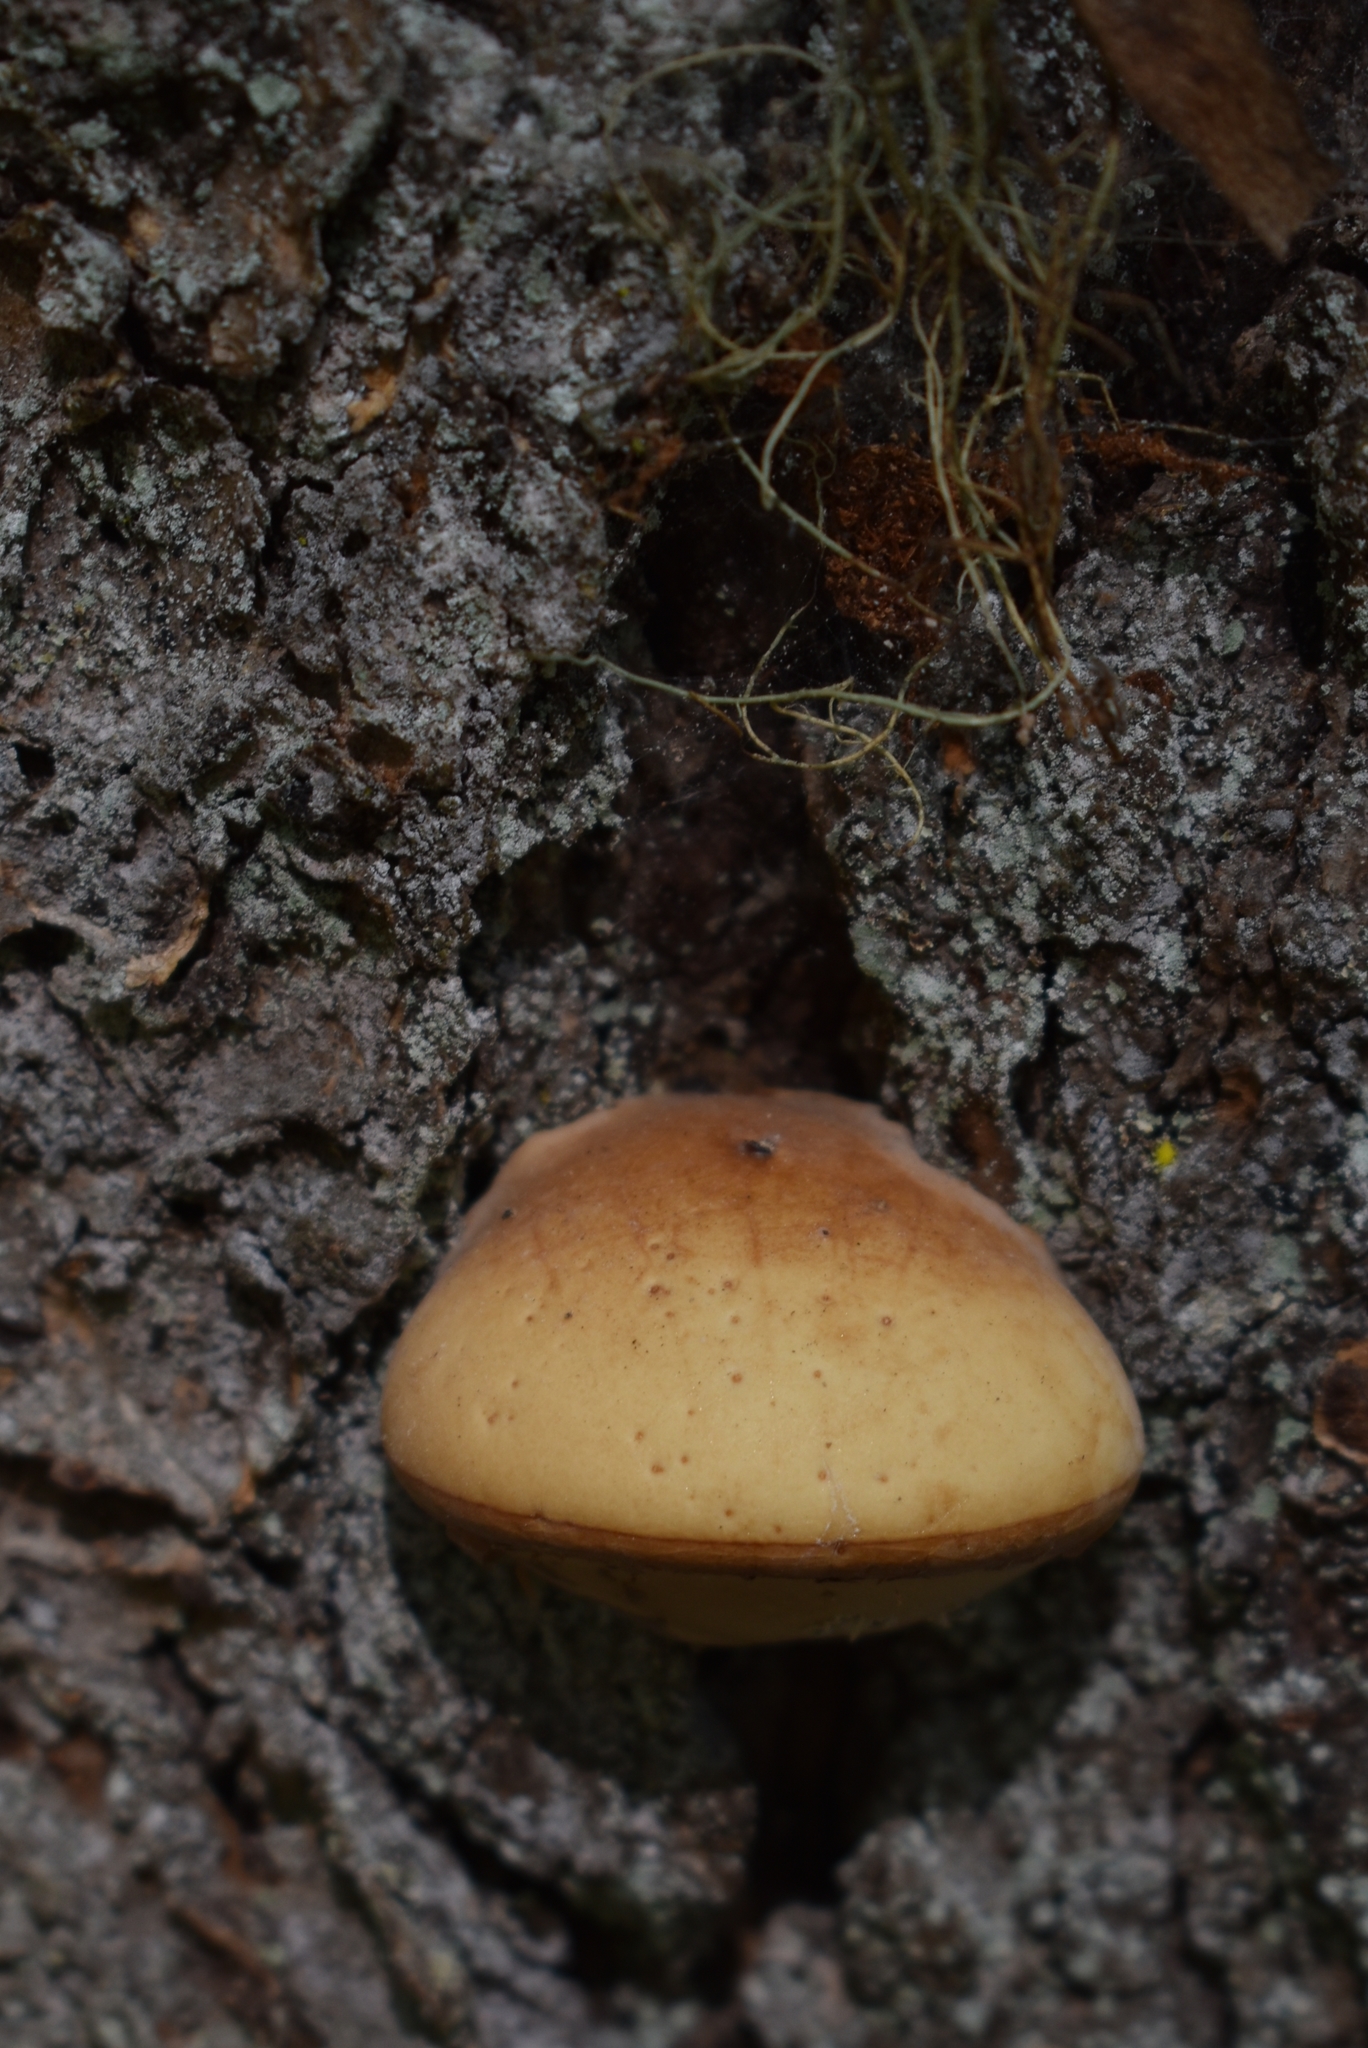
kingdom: Fungi
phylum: Basidiomycota
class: Agaricomycetes
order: Polyporales
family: Polyporaceae
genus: Cryptoporus
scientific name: Cryptoporus volvatus
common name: Veiled polypore
